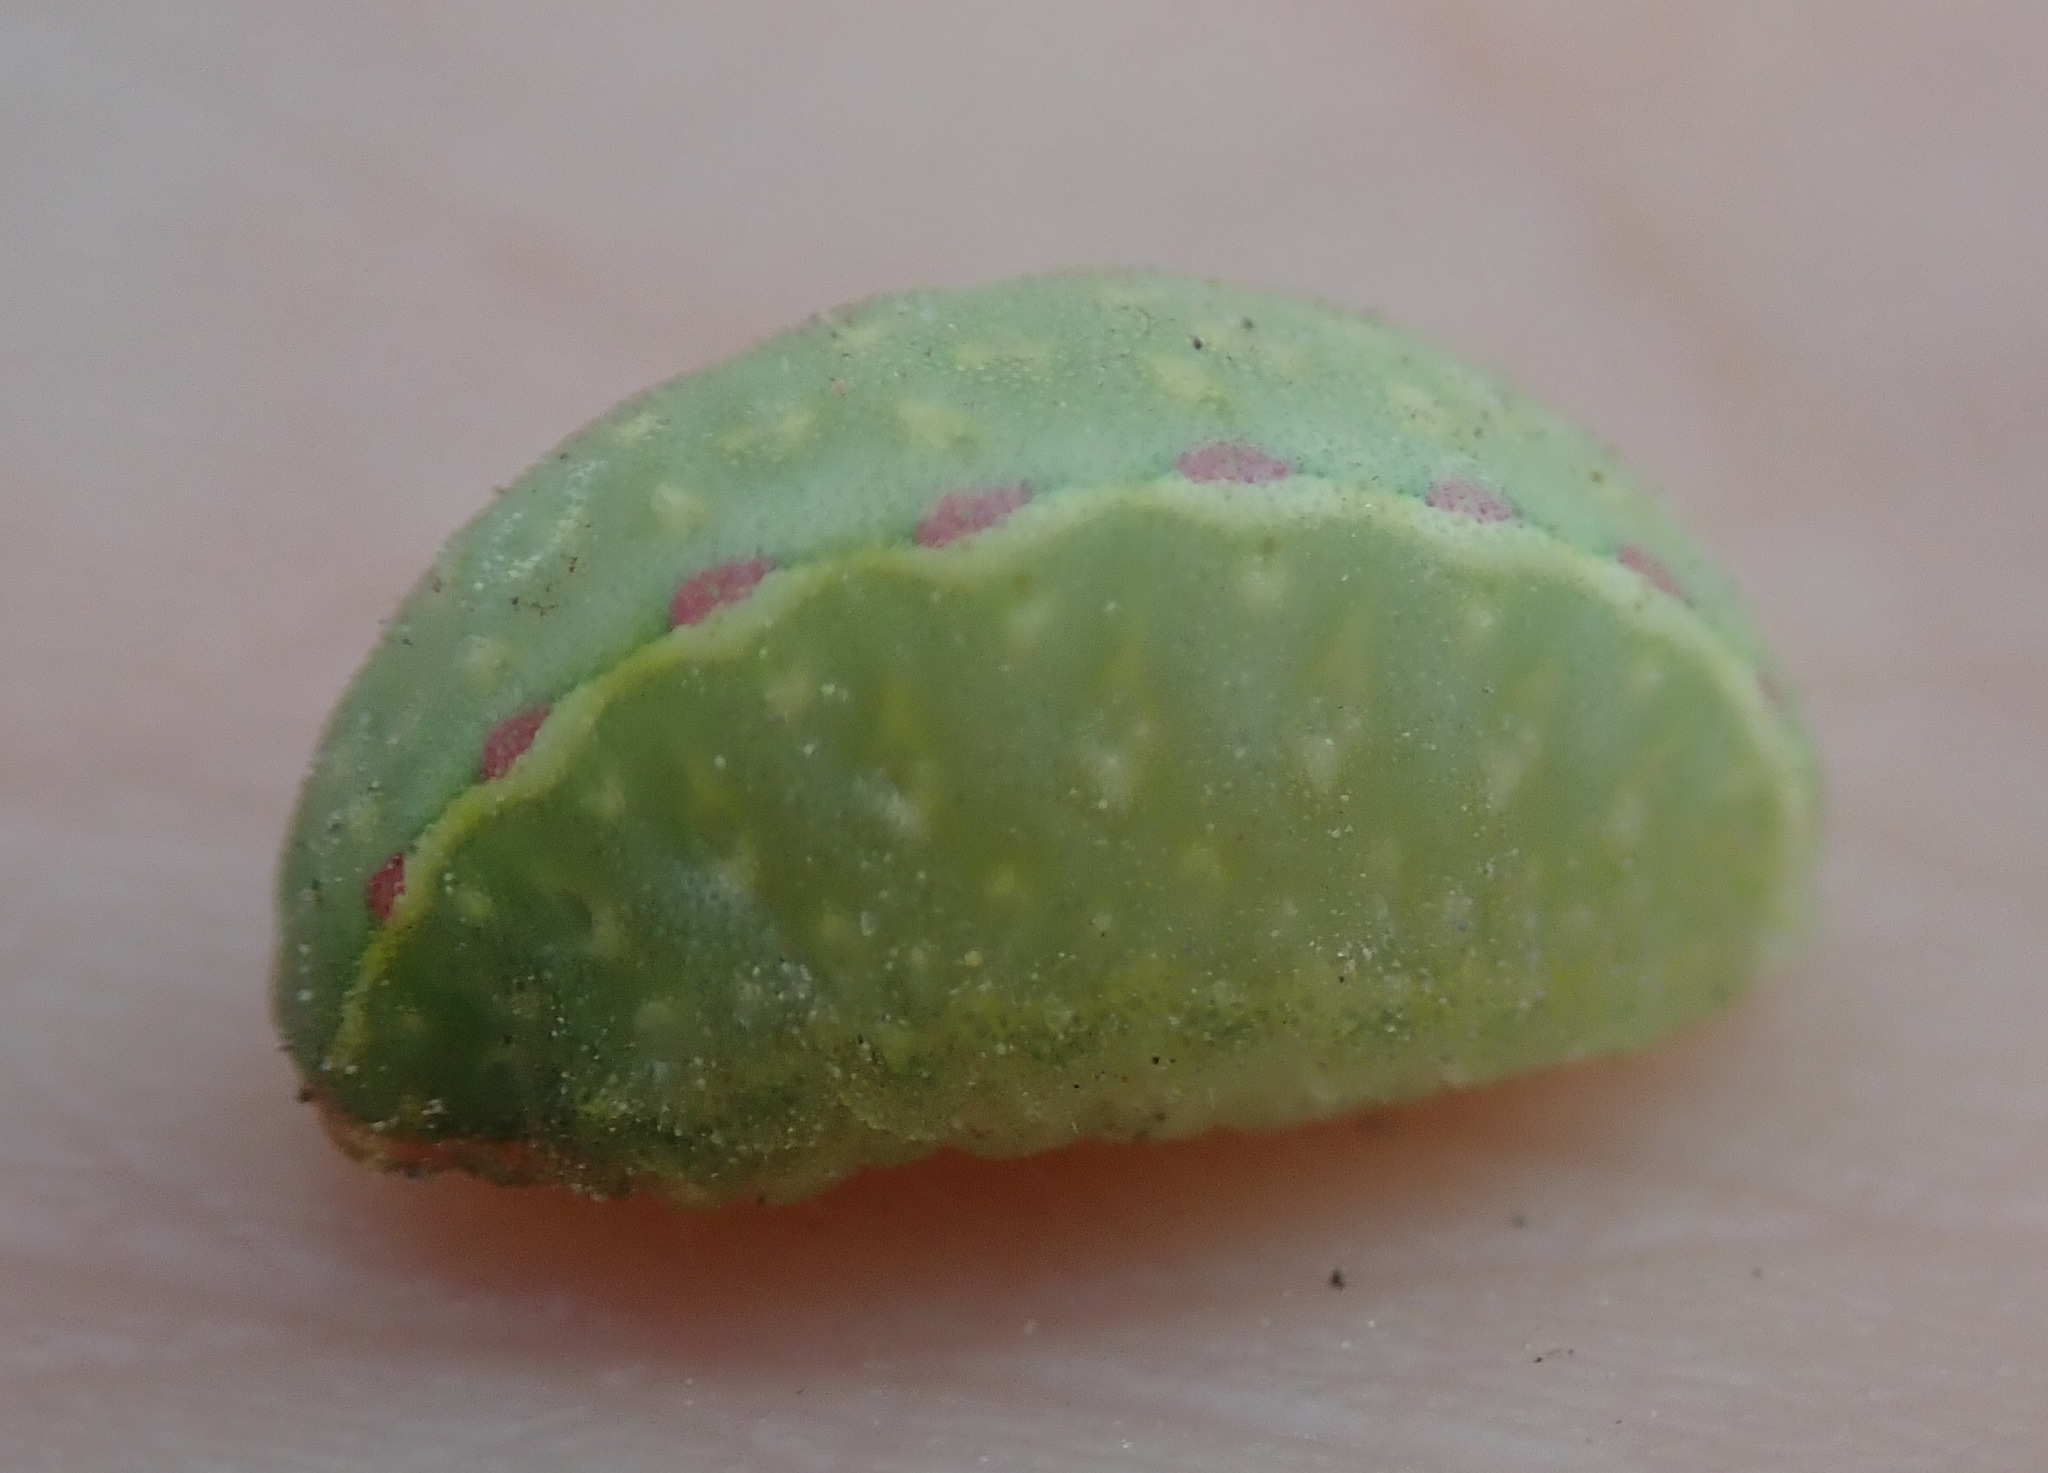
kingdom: Animalia
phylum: Arthropoda
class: Insecta
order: Lepidoptera
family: Limacodidae
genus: Apoda
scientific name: Apoda limacodes
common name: Festoon
